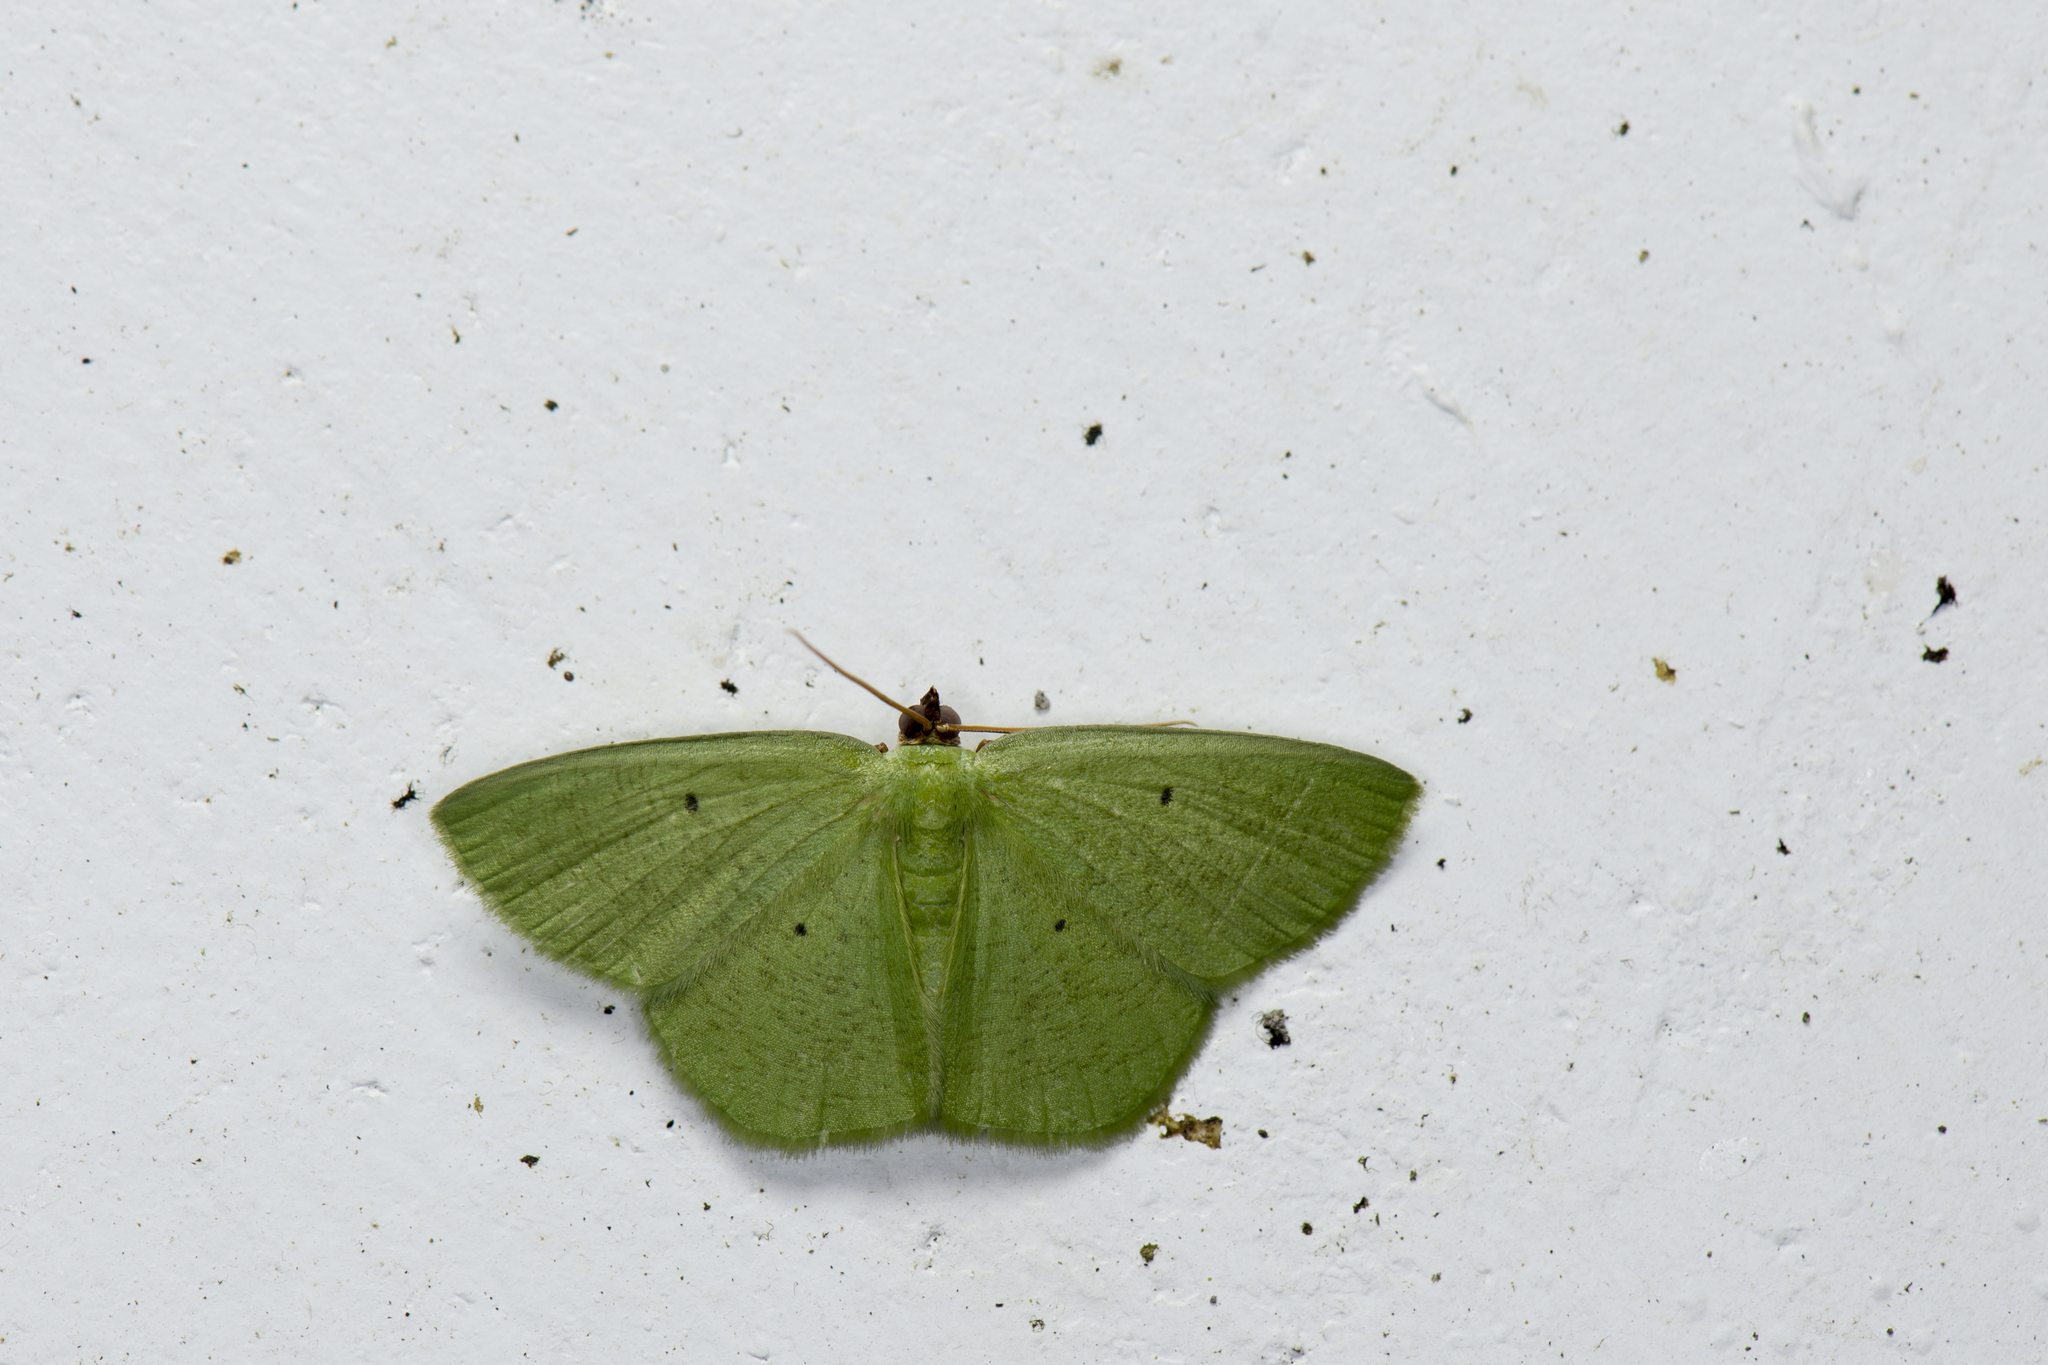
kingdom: Animalia
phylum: Arthropoda
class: Insecta
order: Lepidoptera
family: Geometridae
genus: Aplochlora
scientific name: Aplochlora vivilaca
